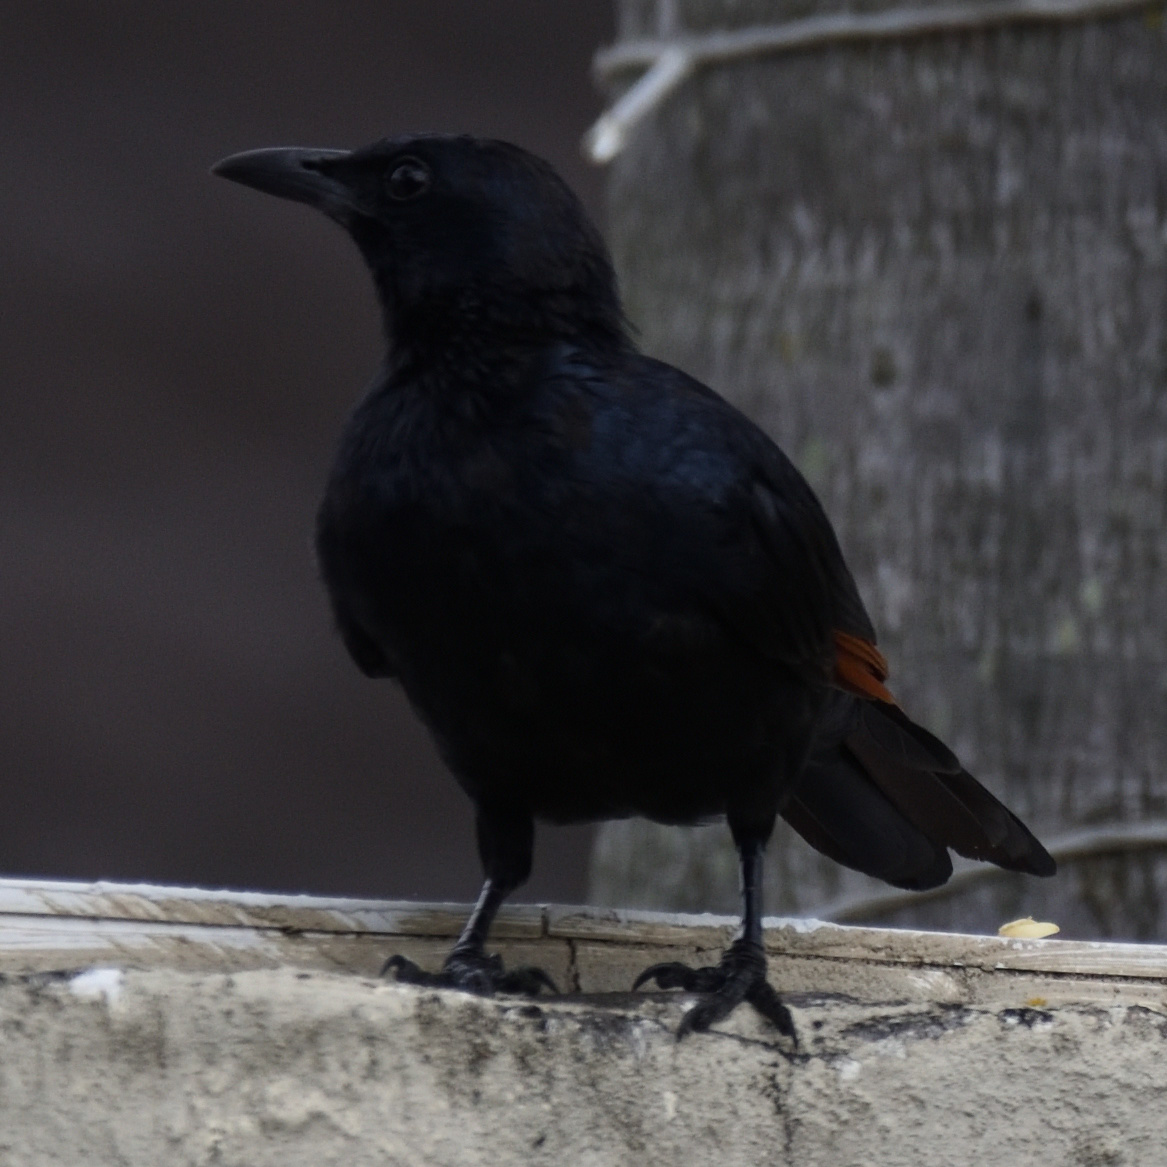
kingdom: Animalia
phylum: Chordata
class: Aves
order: Passeriformes
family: Sturnidae
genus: Onychognathus
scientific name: Onychognathus morio
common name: Red-winged starling
